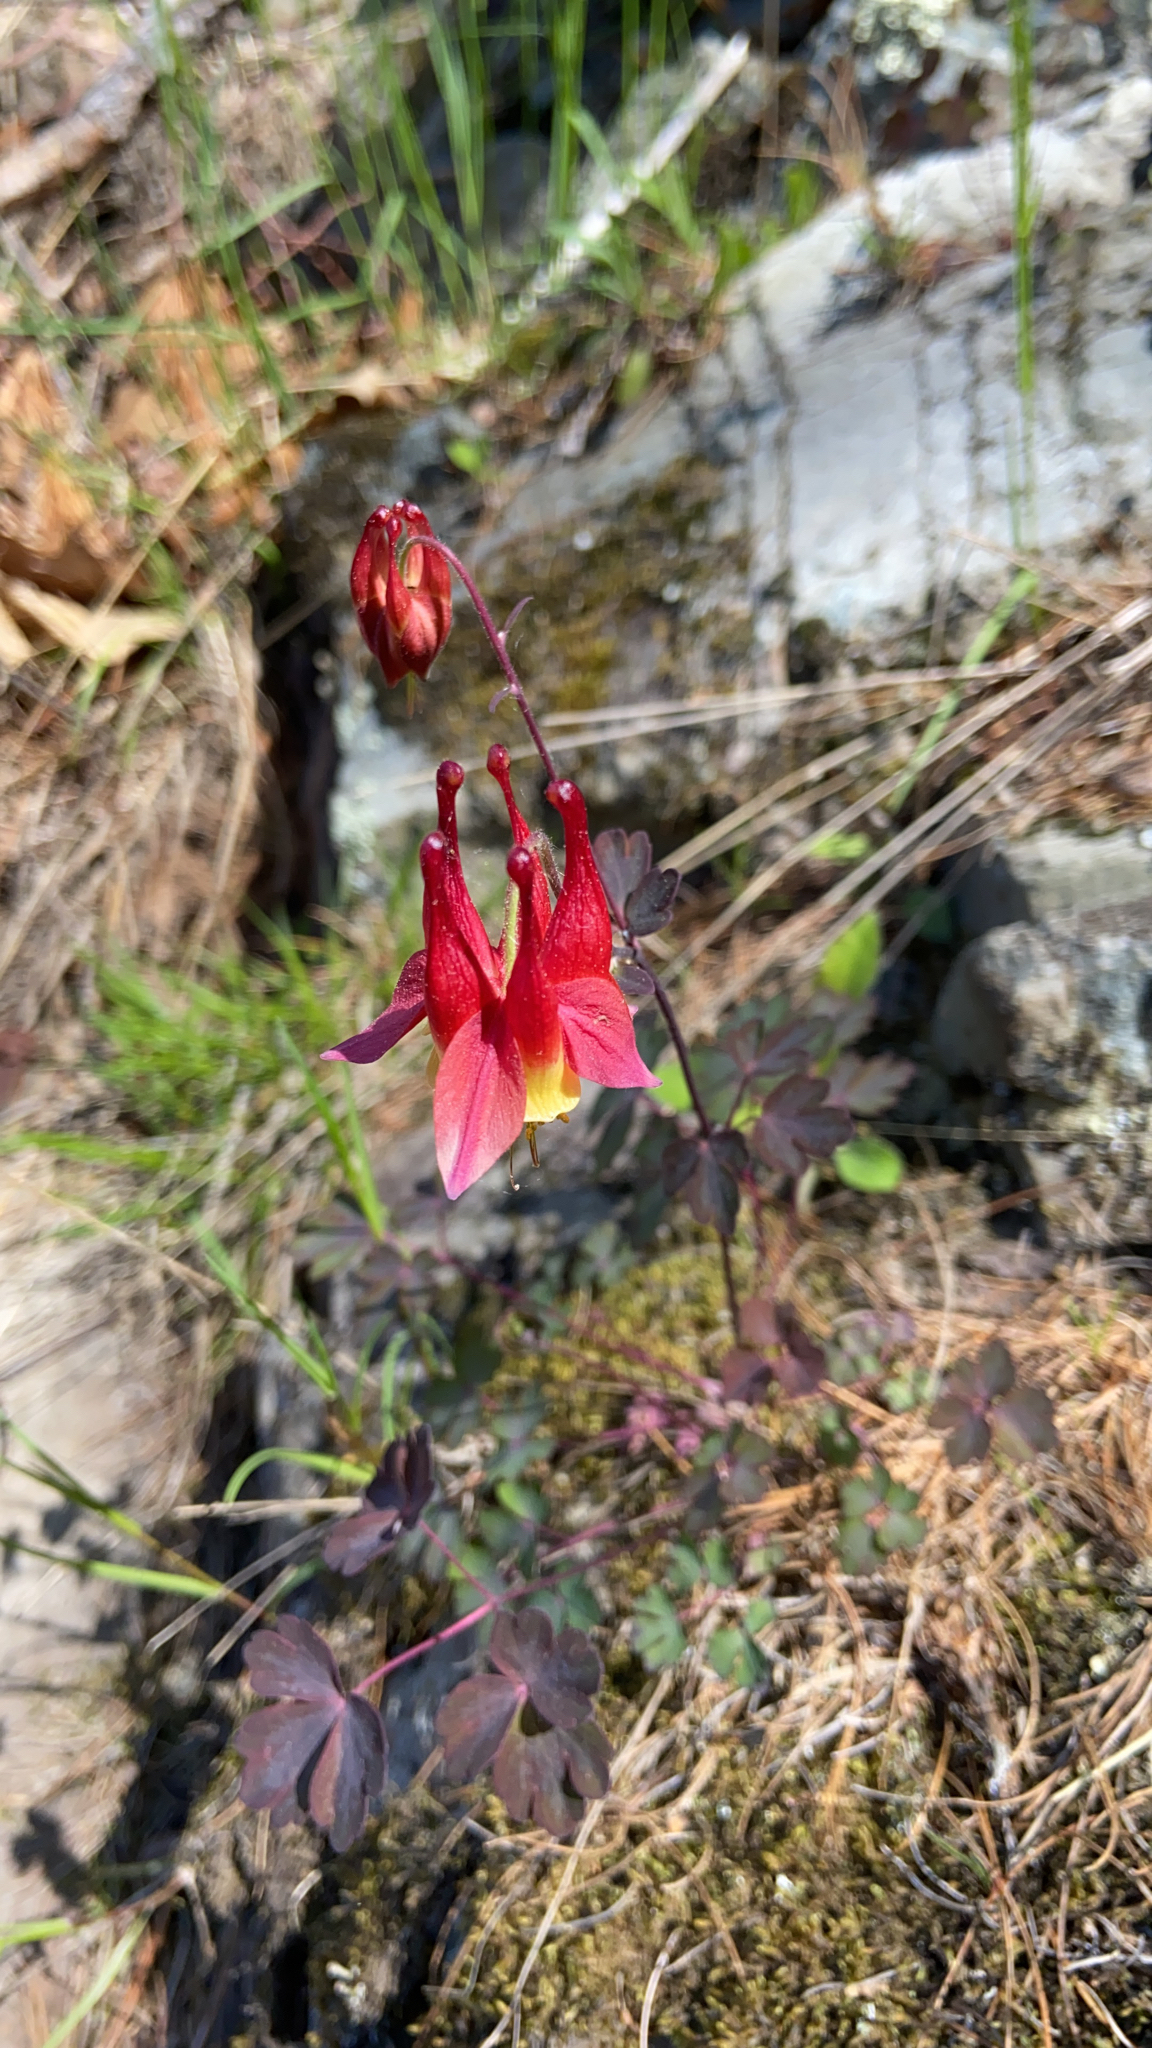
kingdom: Plantae
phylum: Tracheophyta
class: Magnoliopsida
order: Ranunculales
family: Ranunculaceae
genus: Aquilegia
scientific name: Aquilegia canadensis
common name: American columbine
